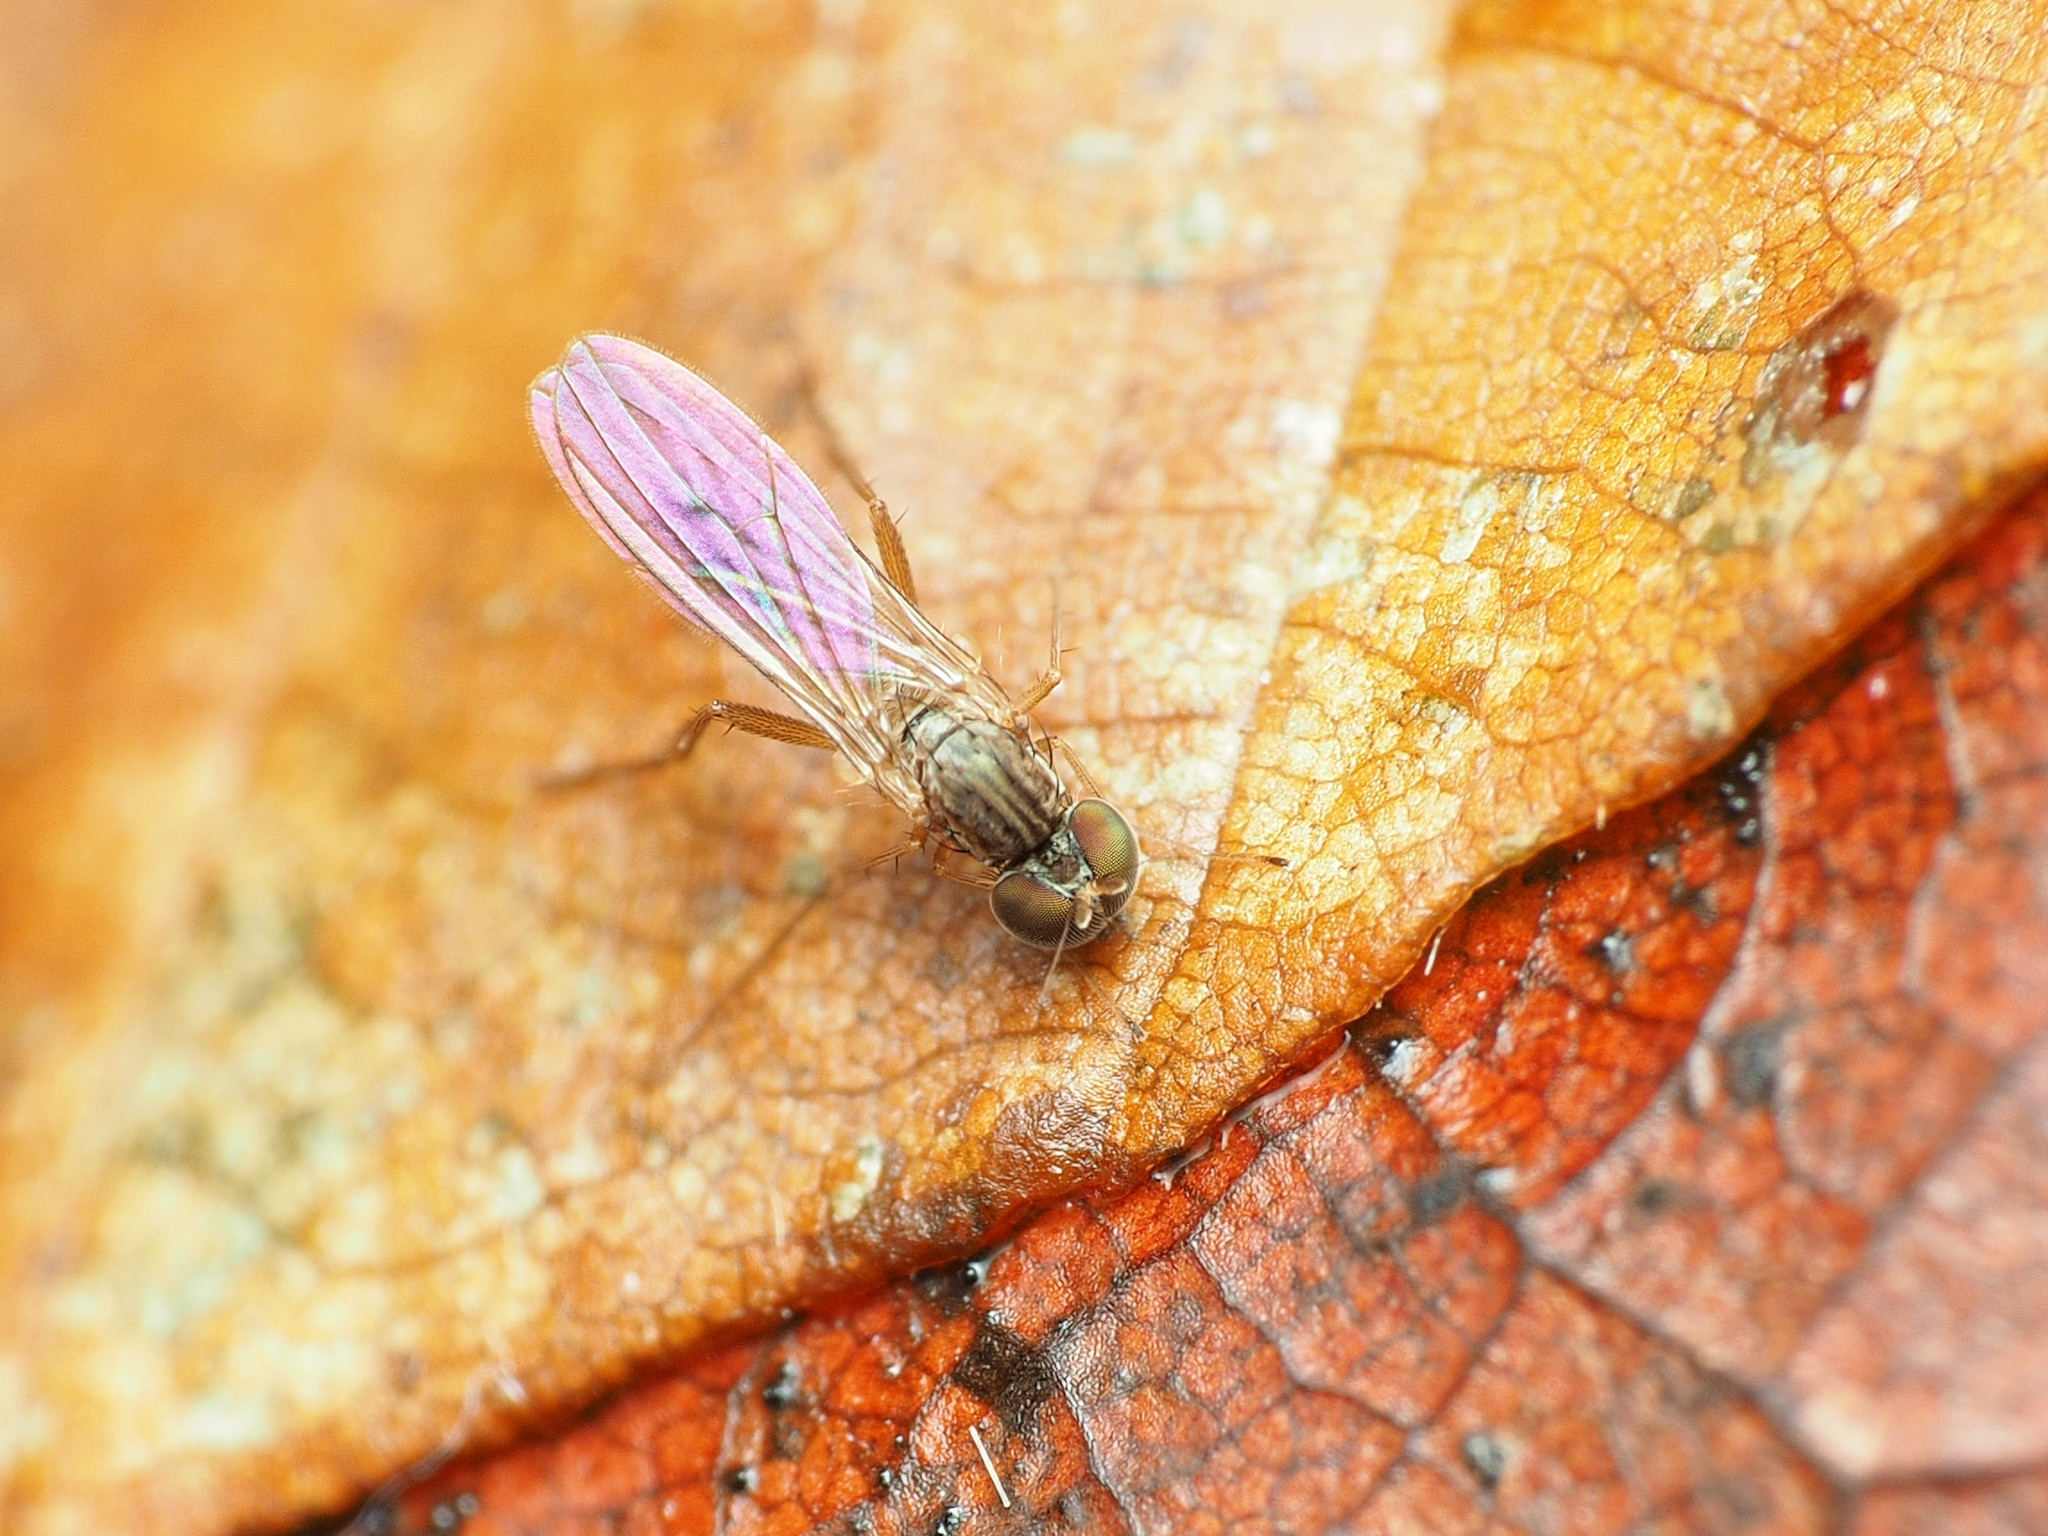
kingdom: Animalia
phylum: Arthropoda
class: Insecta
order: Diptera
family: Dolichopodidae
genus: Sympycnus
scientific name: Sympycnus lineatus
